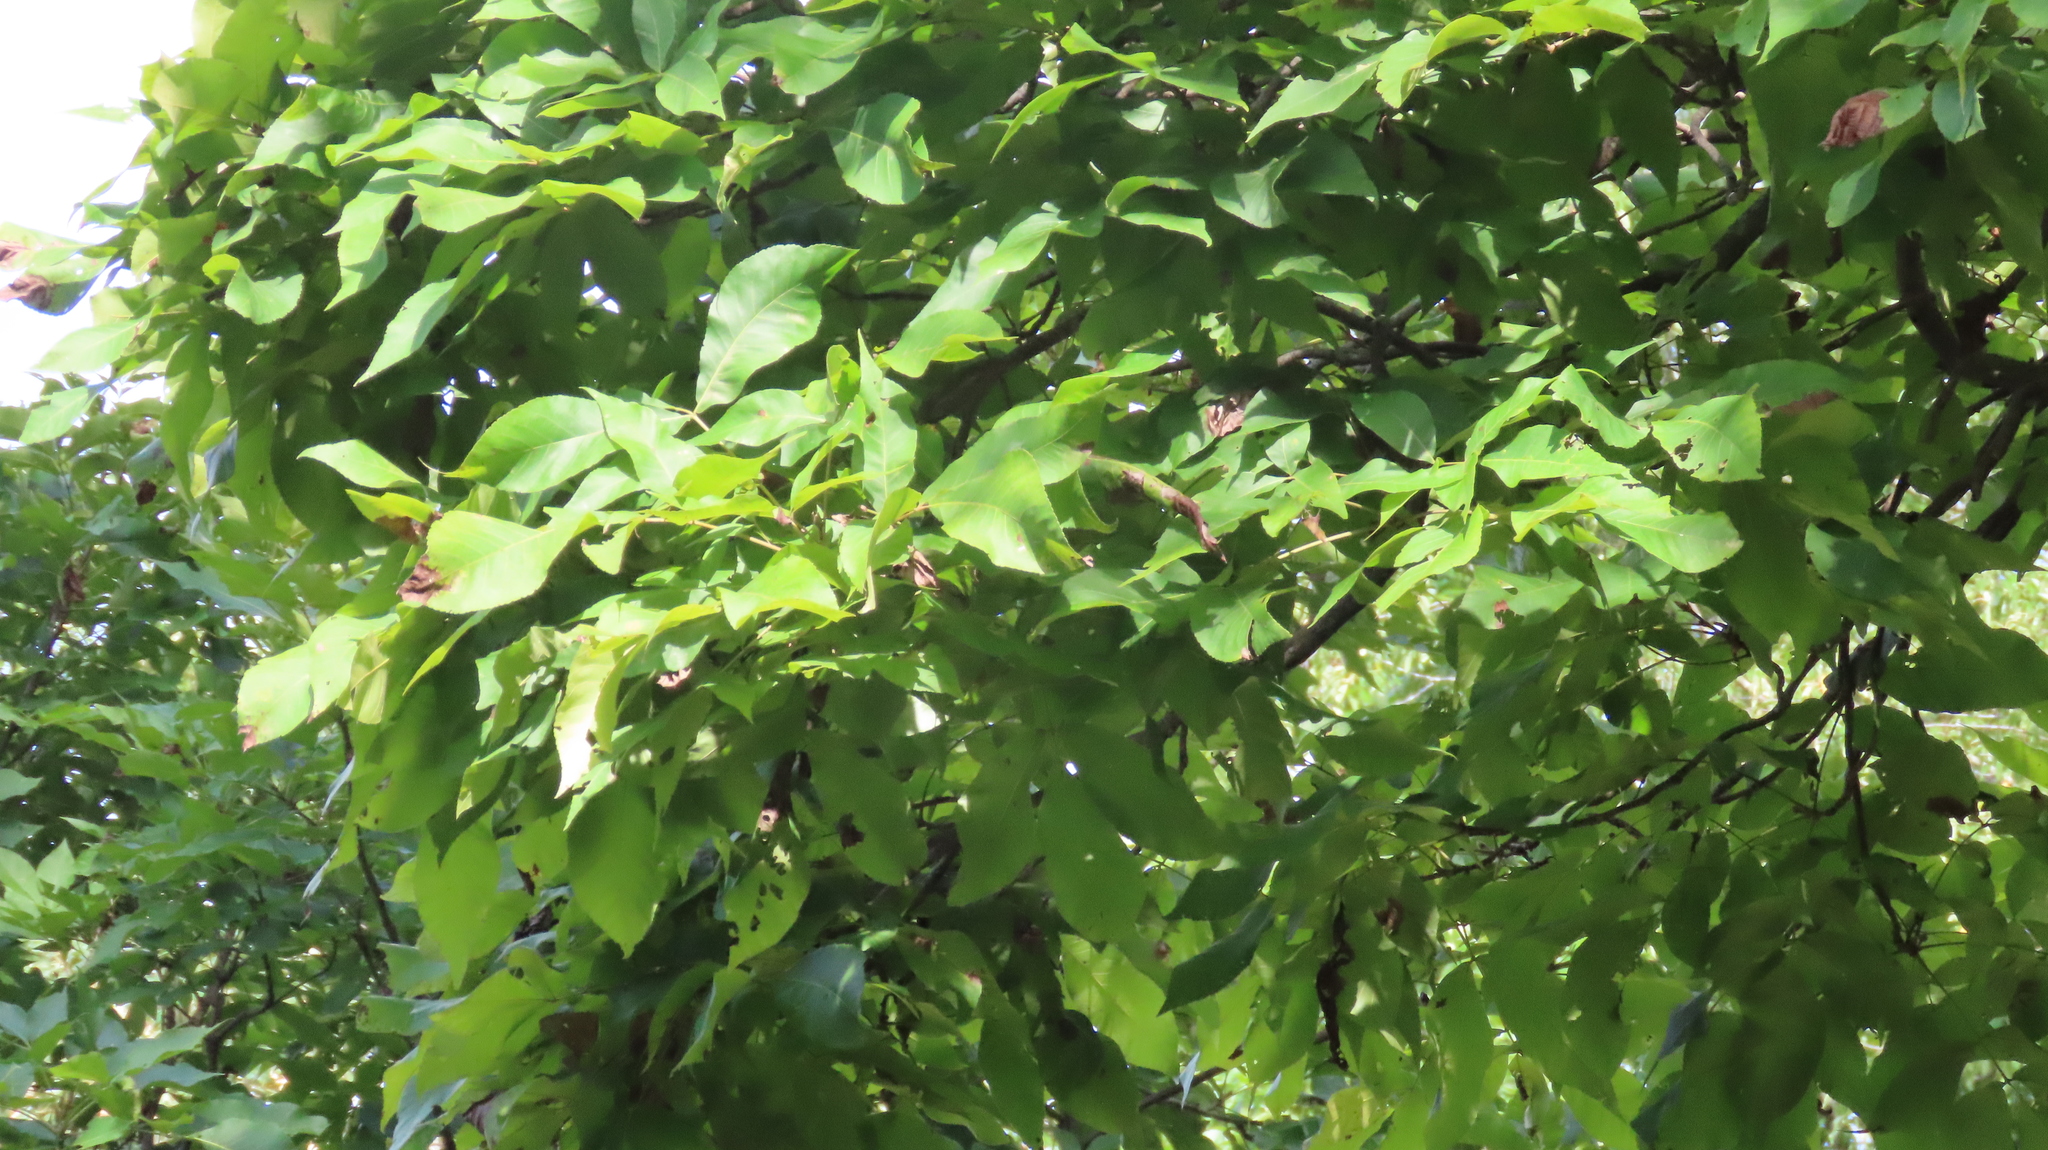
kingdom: Plantae
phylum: Tracheophyta
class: Magnoliopsida
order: Fagales
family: Juglandaceae
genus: Carya
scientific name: Carya ovata
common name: Shagbark hickory
